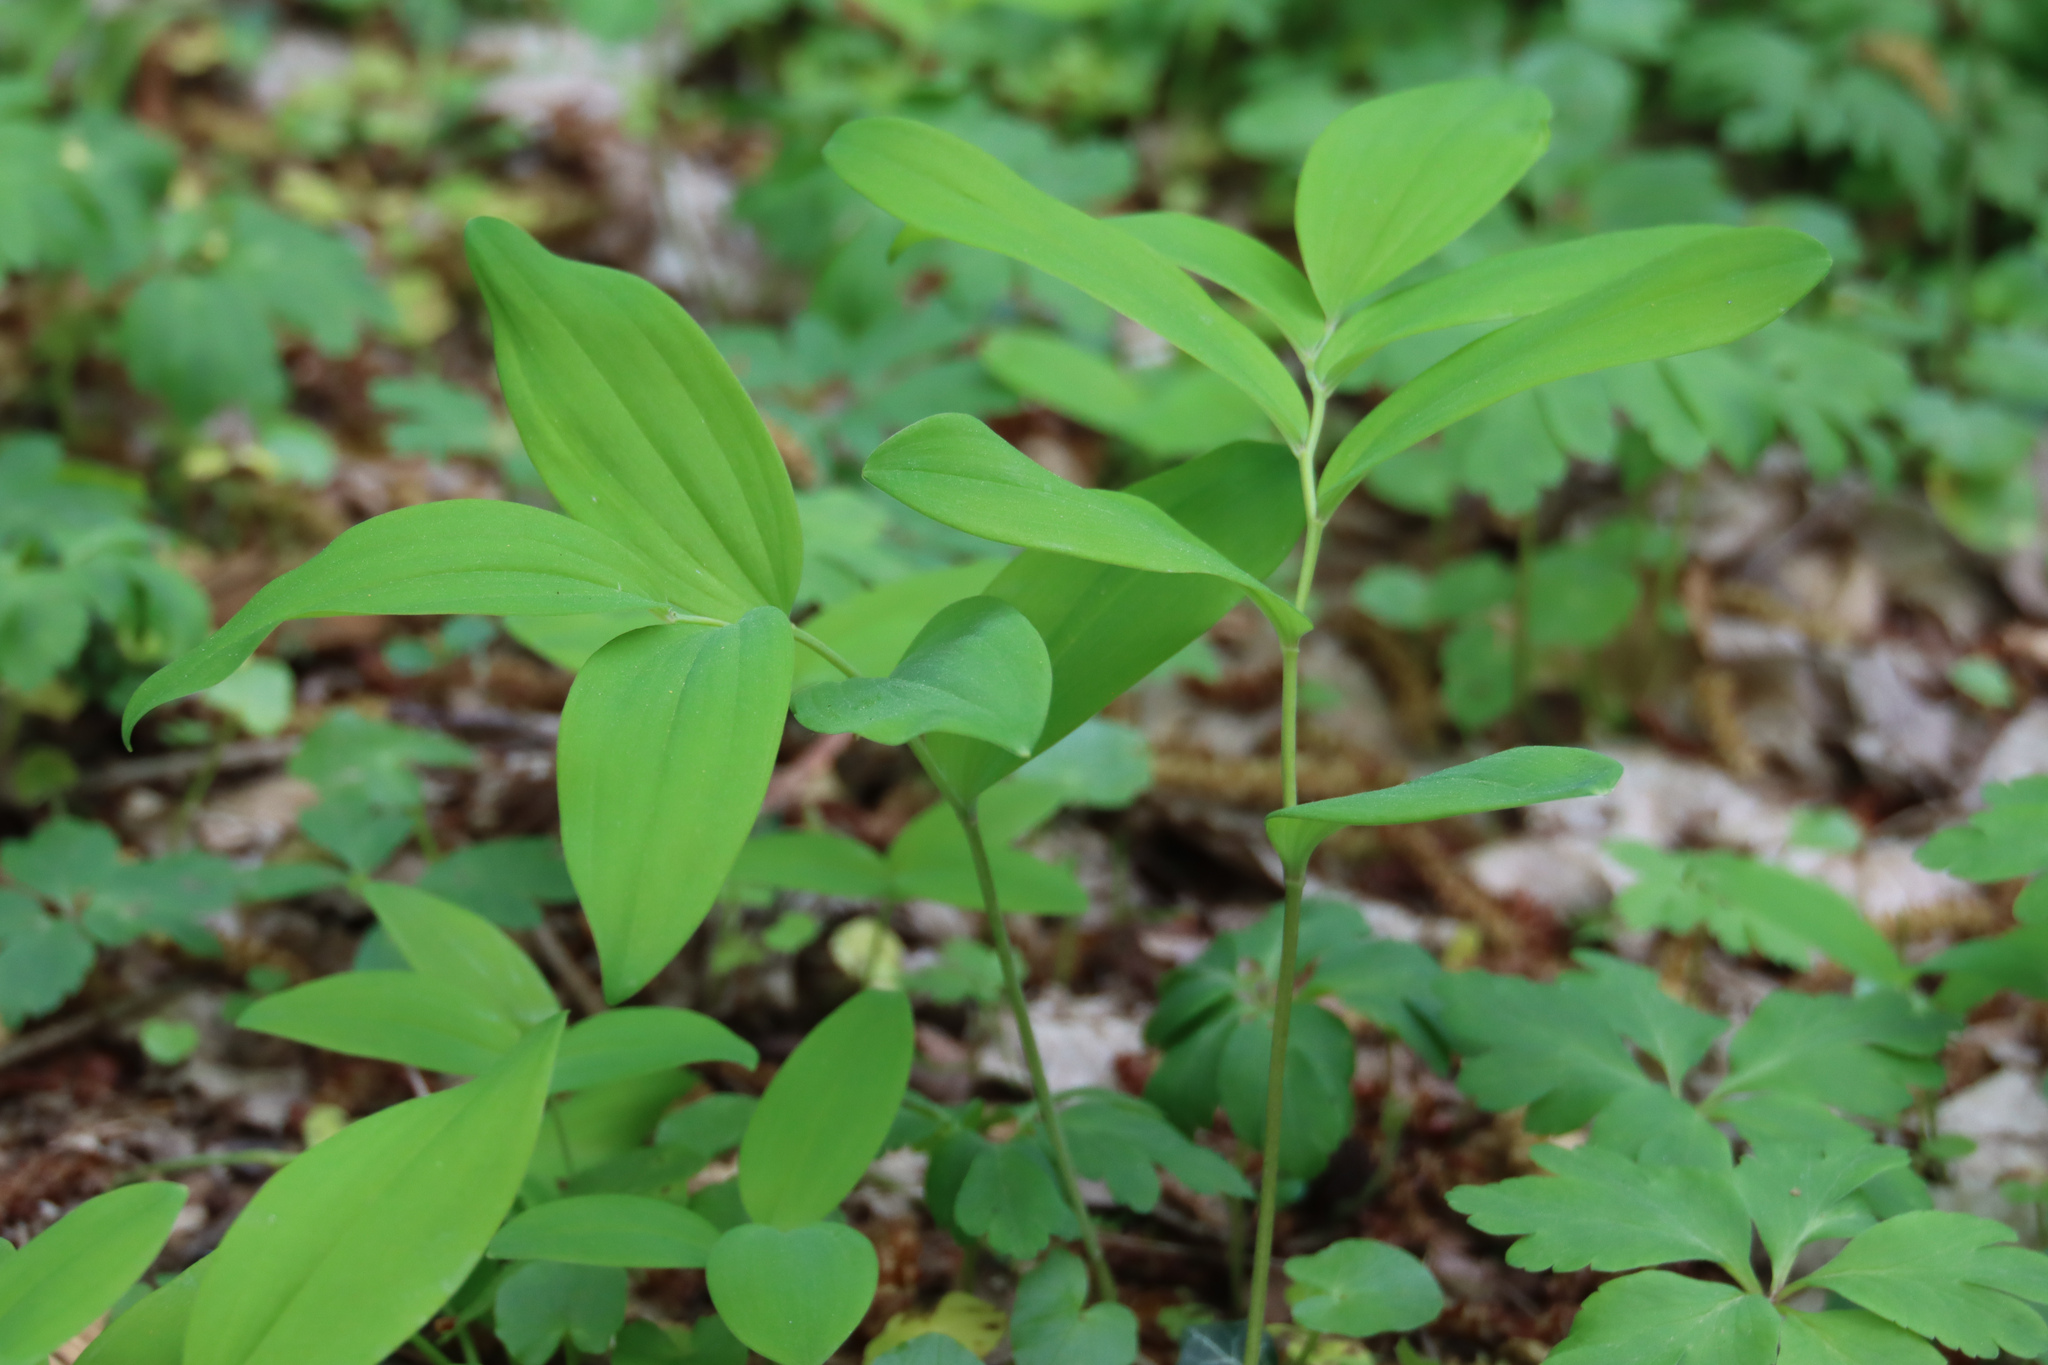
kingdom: Plantae
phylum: Tracheophyta
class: Liliopsida
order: Asparagales
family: Asparagaceae
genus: Polygonatum
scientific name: Polygonatum multiflorum
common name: Solomon's-seal
